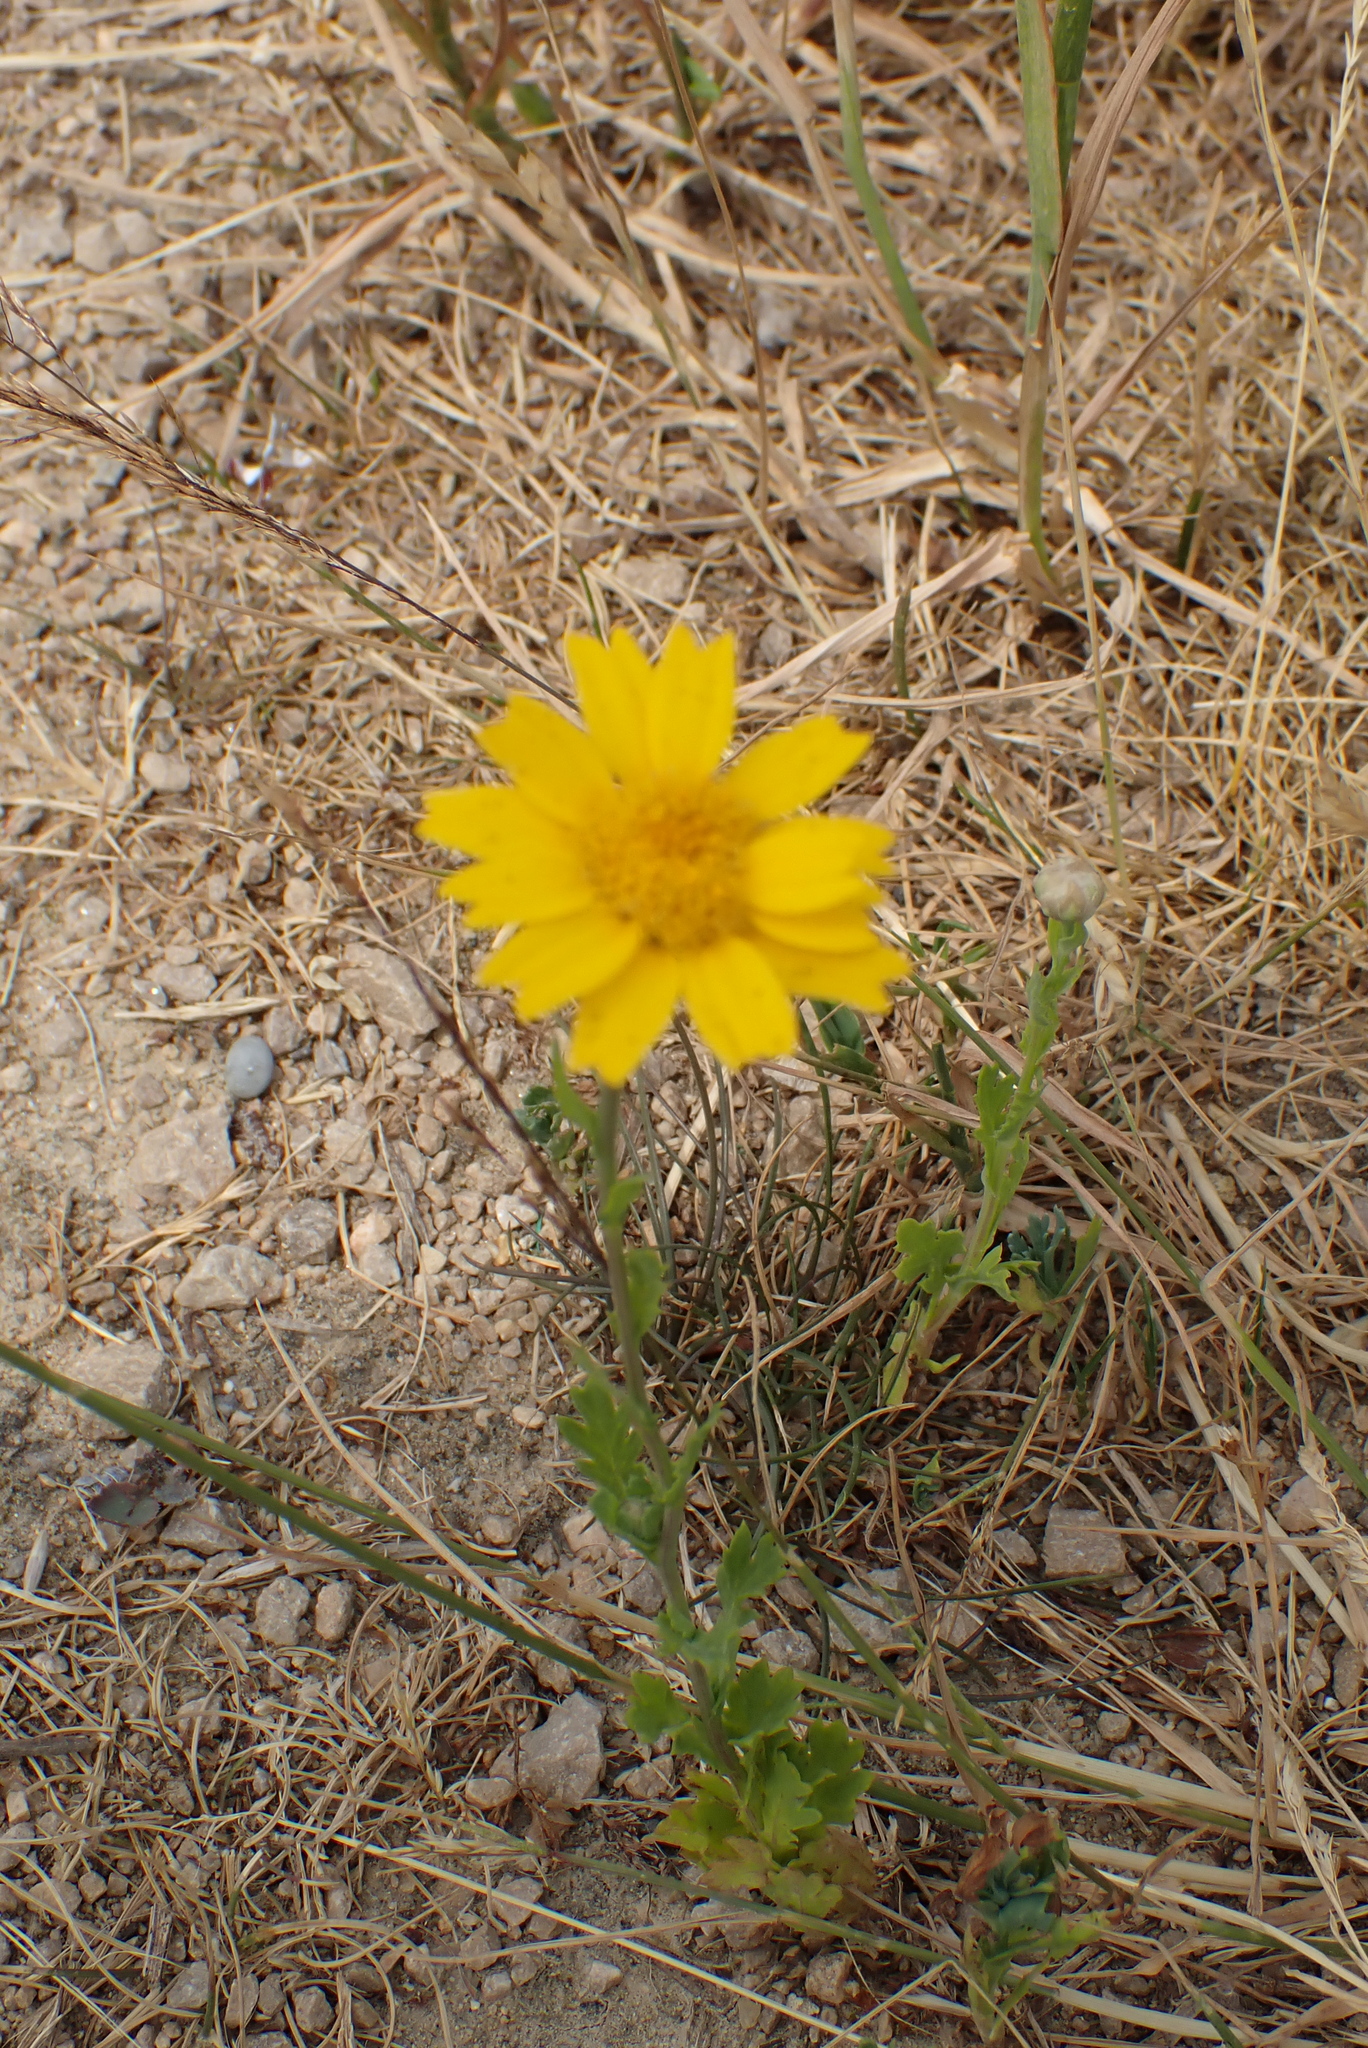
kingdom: Plantae
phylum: Tracheophyta
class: Magnoliopsida
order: Asterales
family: Asteraceae
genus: Glebionis
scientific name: Glebionis segetum
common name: Corndaisy
